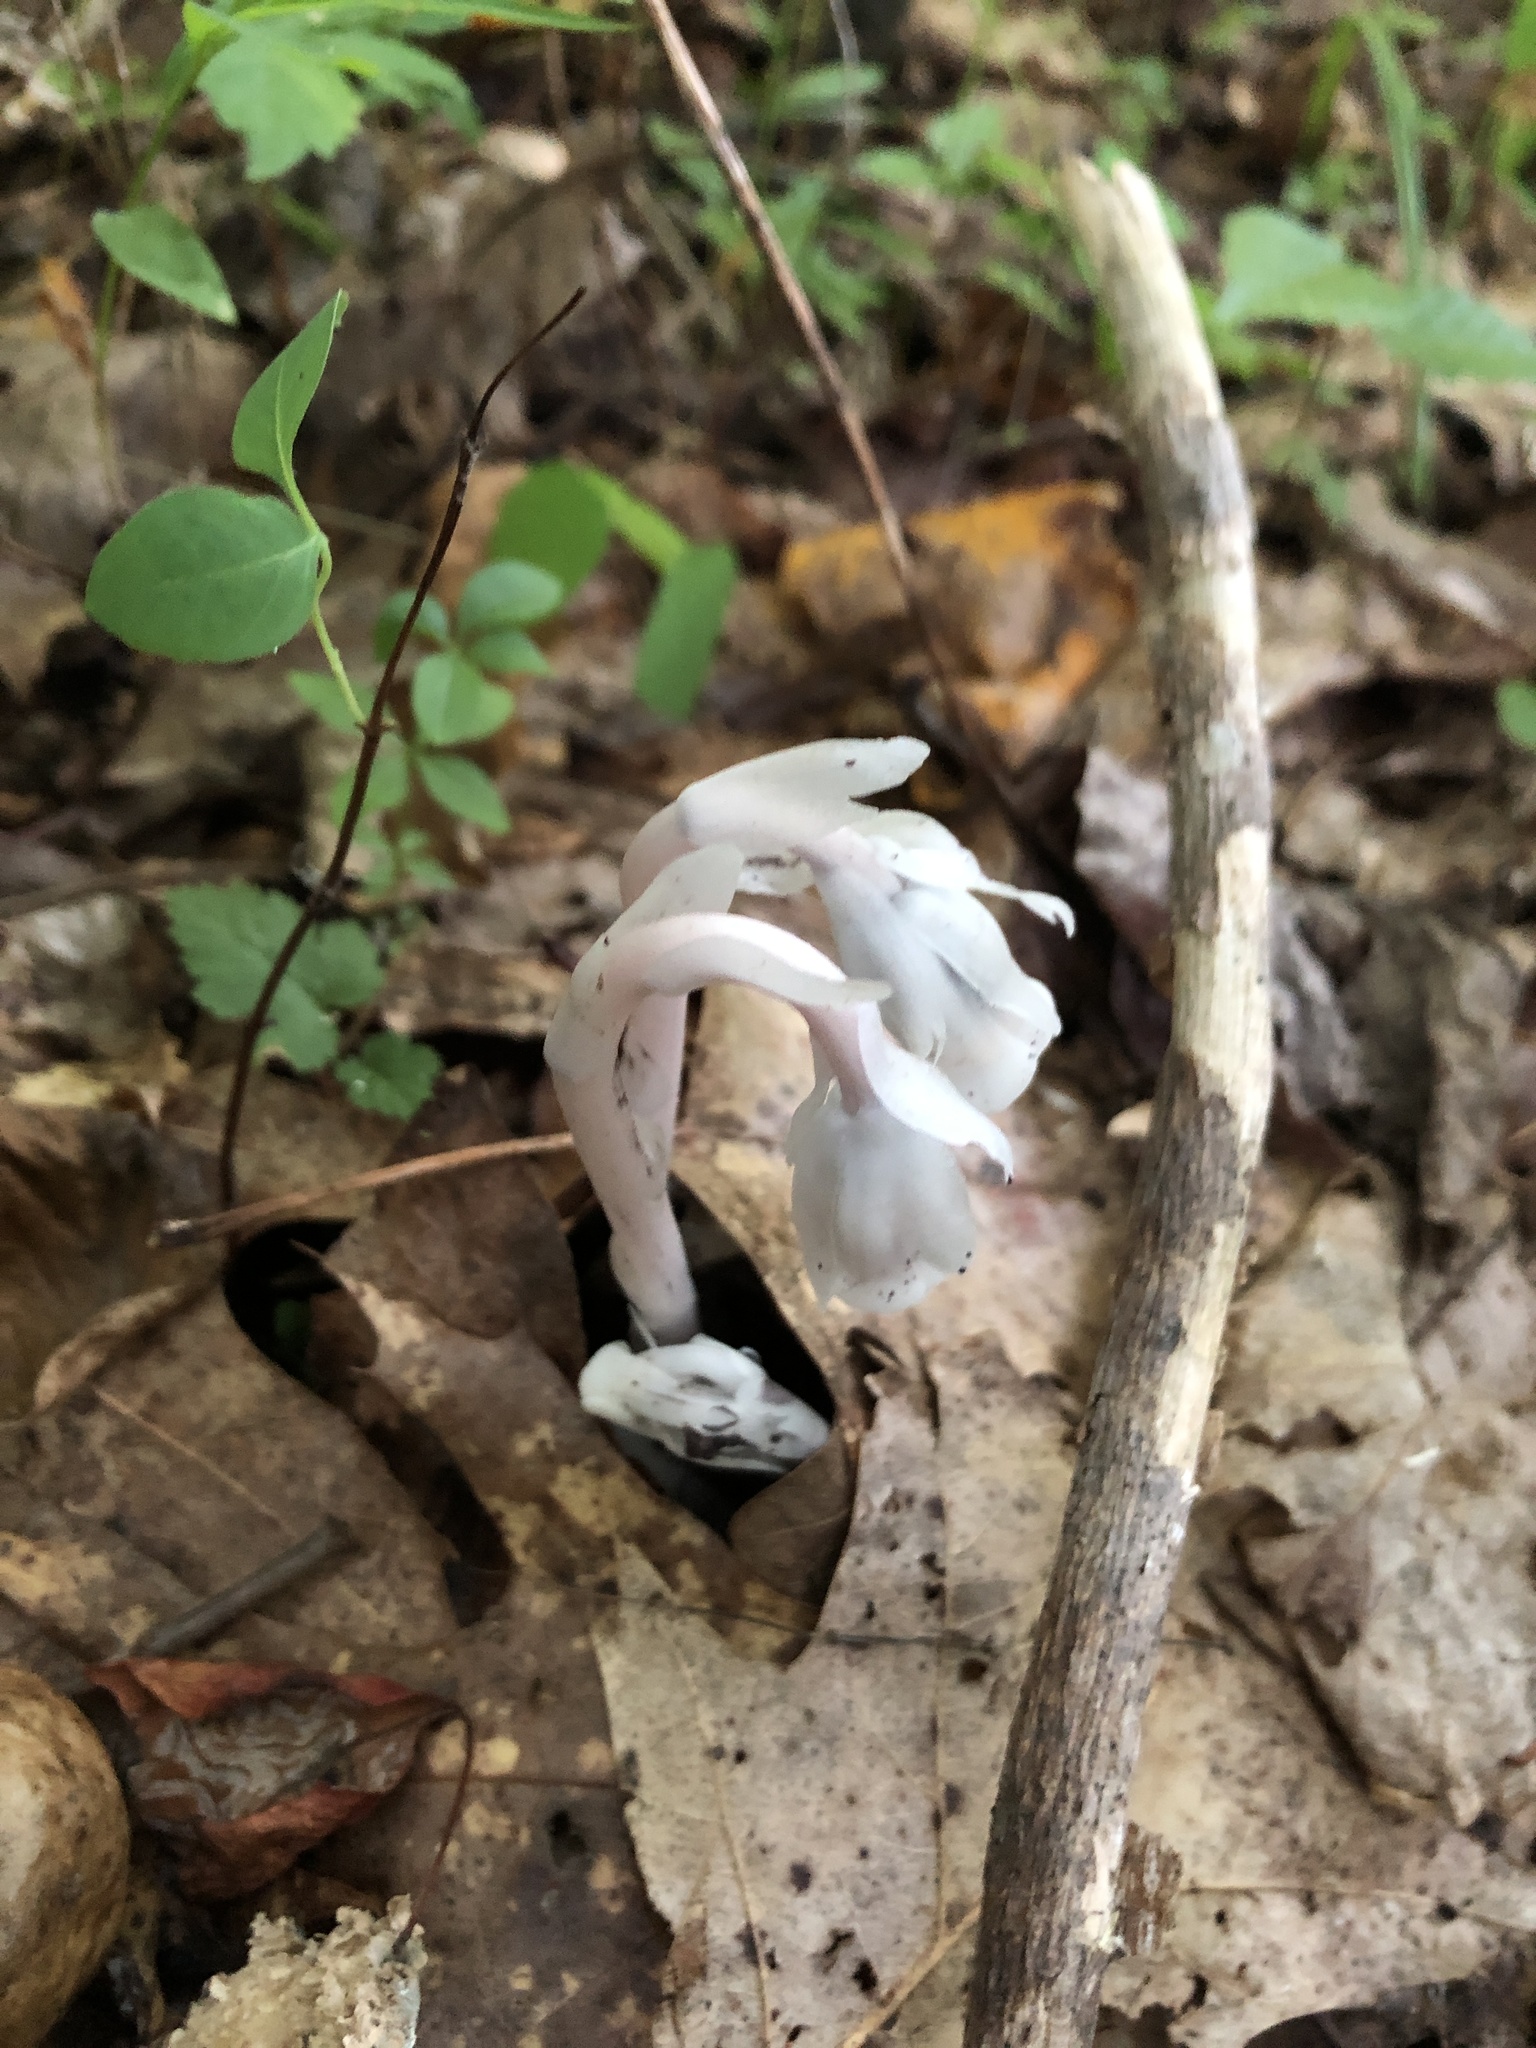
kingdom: Plantae
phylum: Tracheophyta
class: Magnoliopsida
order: Ericales
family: Ericaceae
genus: Monotropa
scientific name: Monotropa uniflora
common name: Convulsion root
